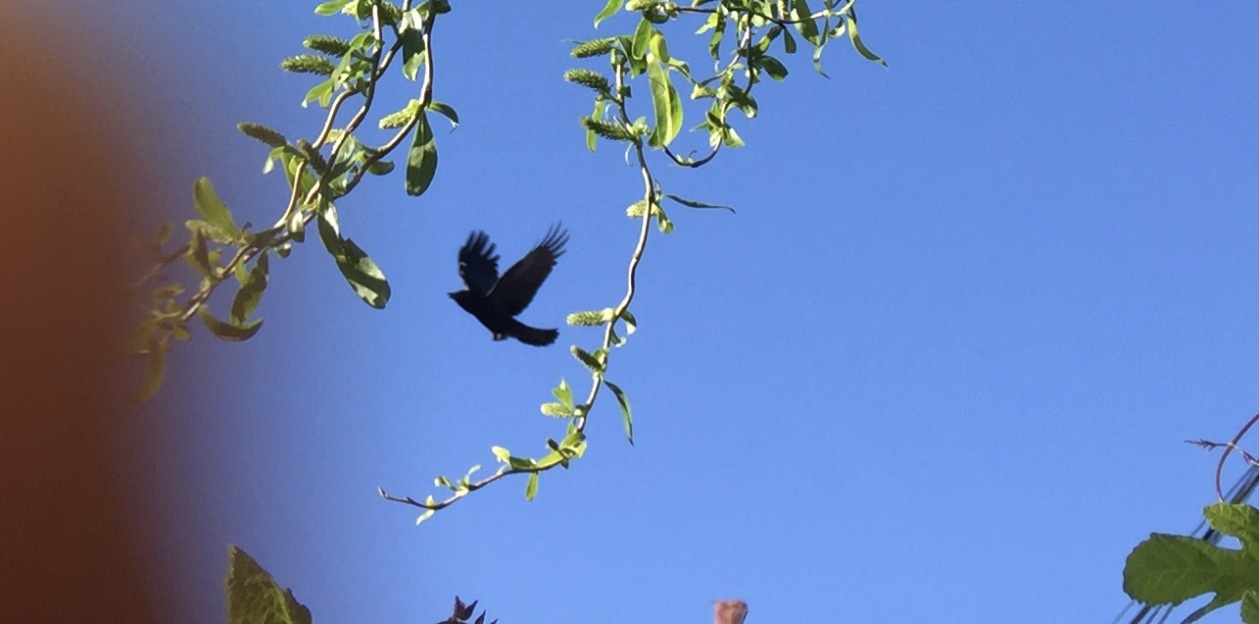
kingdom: Animalia
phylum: Chordata
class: Aves
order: Passeriformes
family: Corvidae
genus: Corvus
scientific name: Corvus brachyrhynchos
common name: American crow
